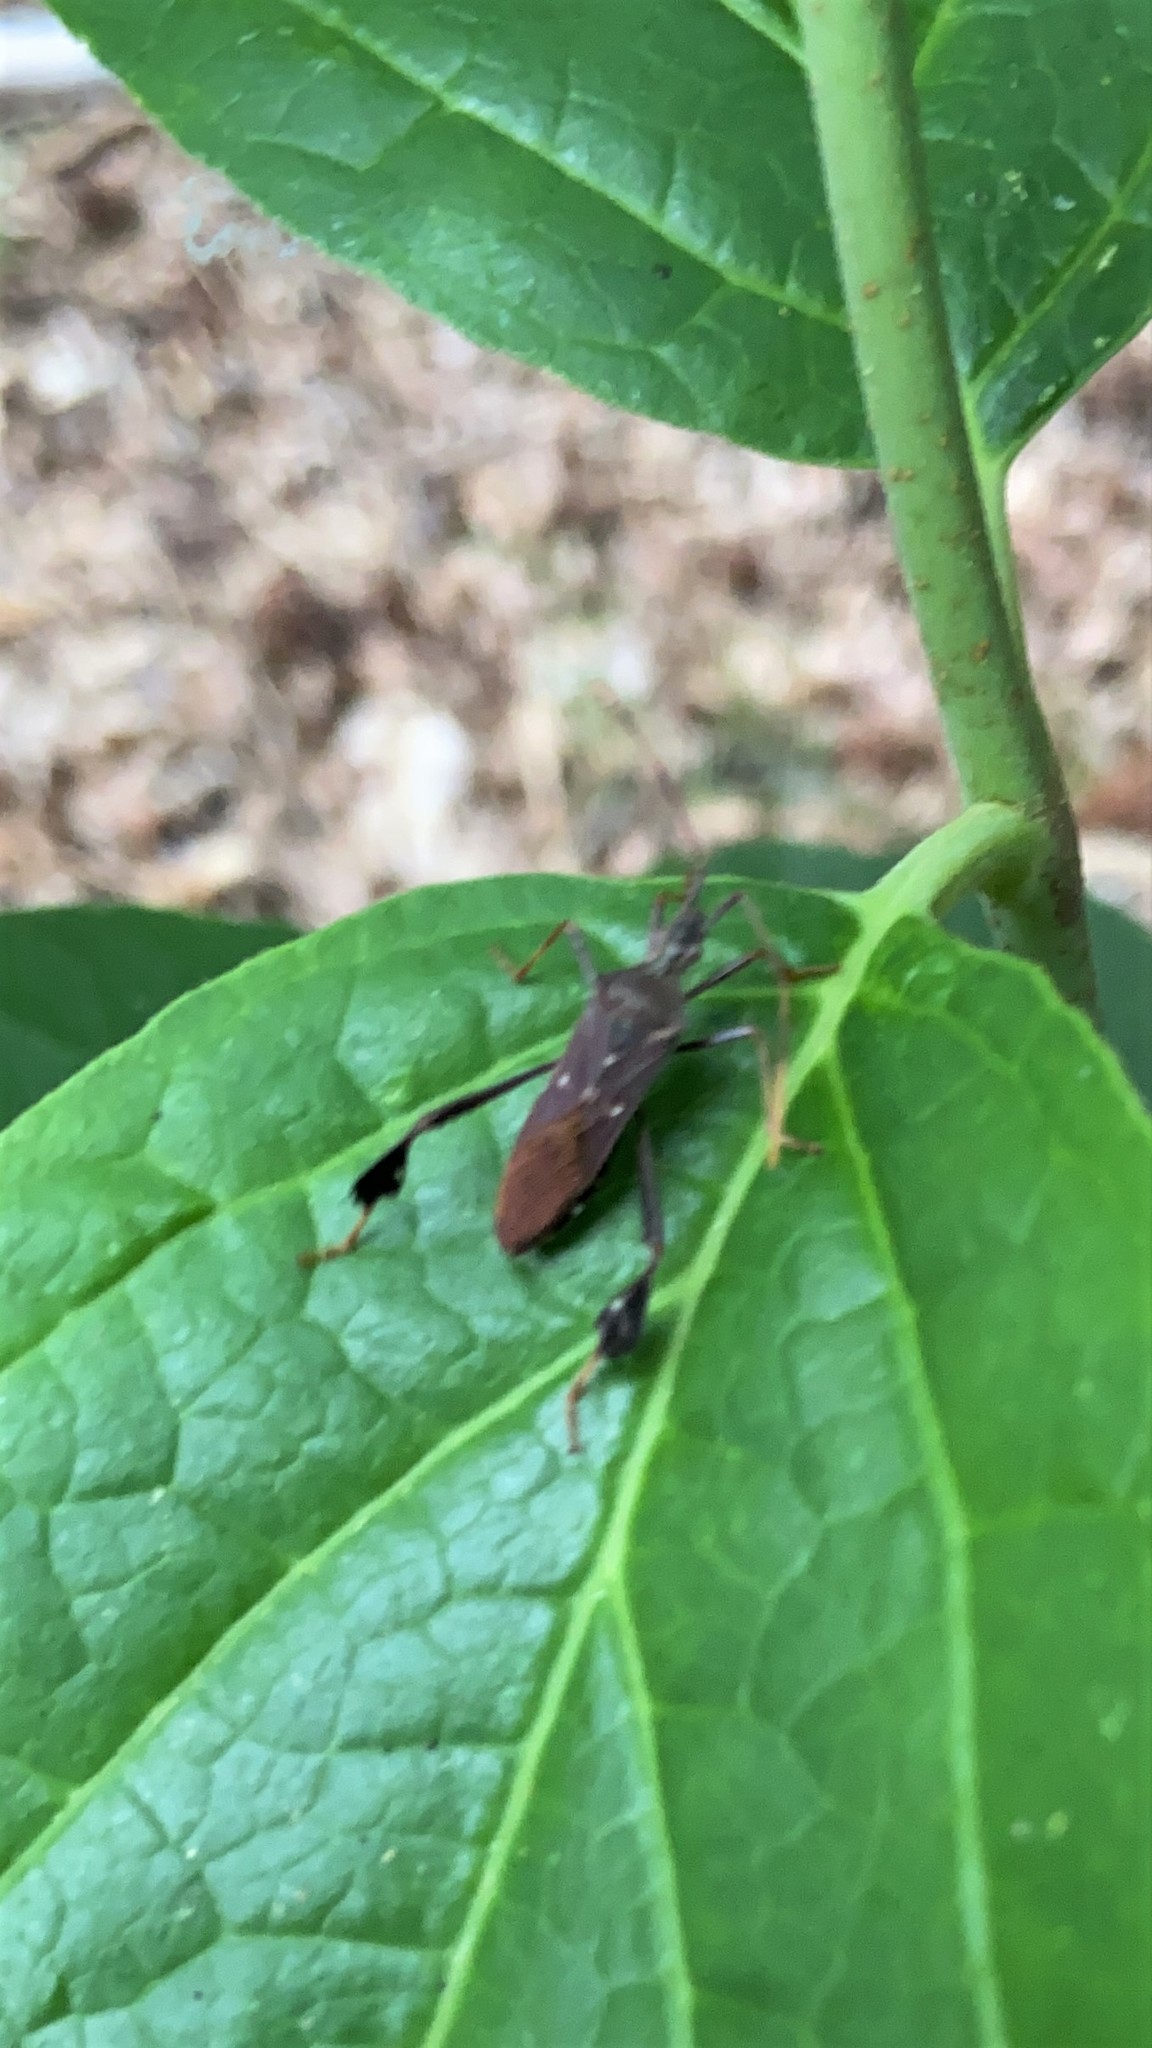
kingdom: Animalia
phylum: Arthropoda
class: Insecta
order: Hemiptera
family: Coreidae
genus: Leptoglossus
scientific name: Leptoglossus oppositus
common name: Northern leaf-footed bug
